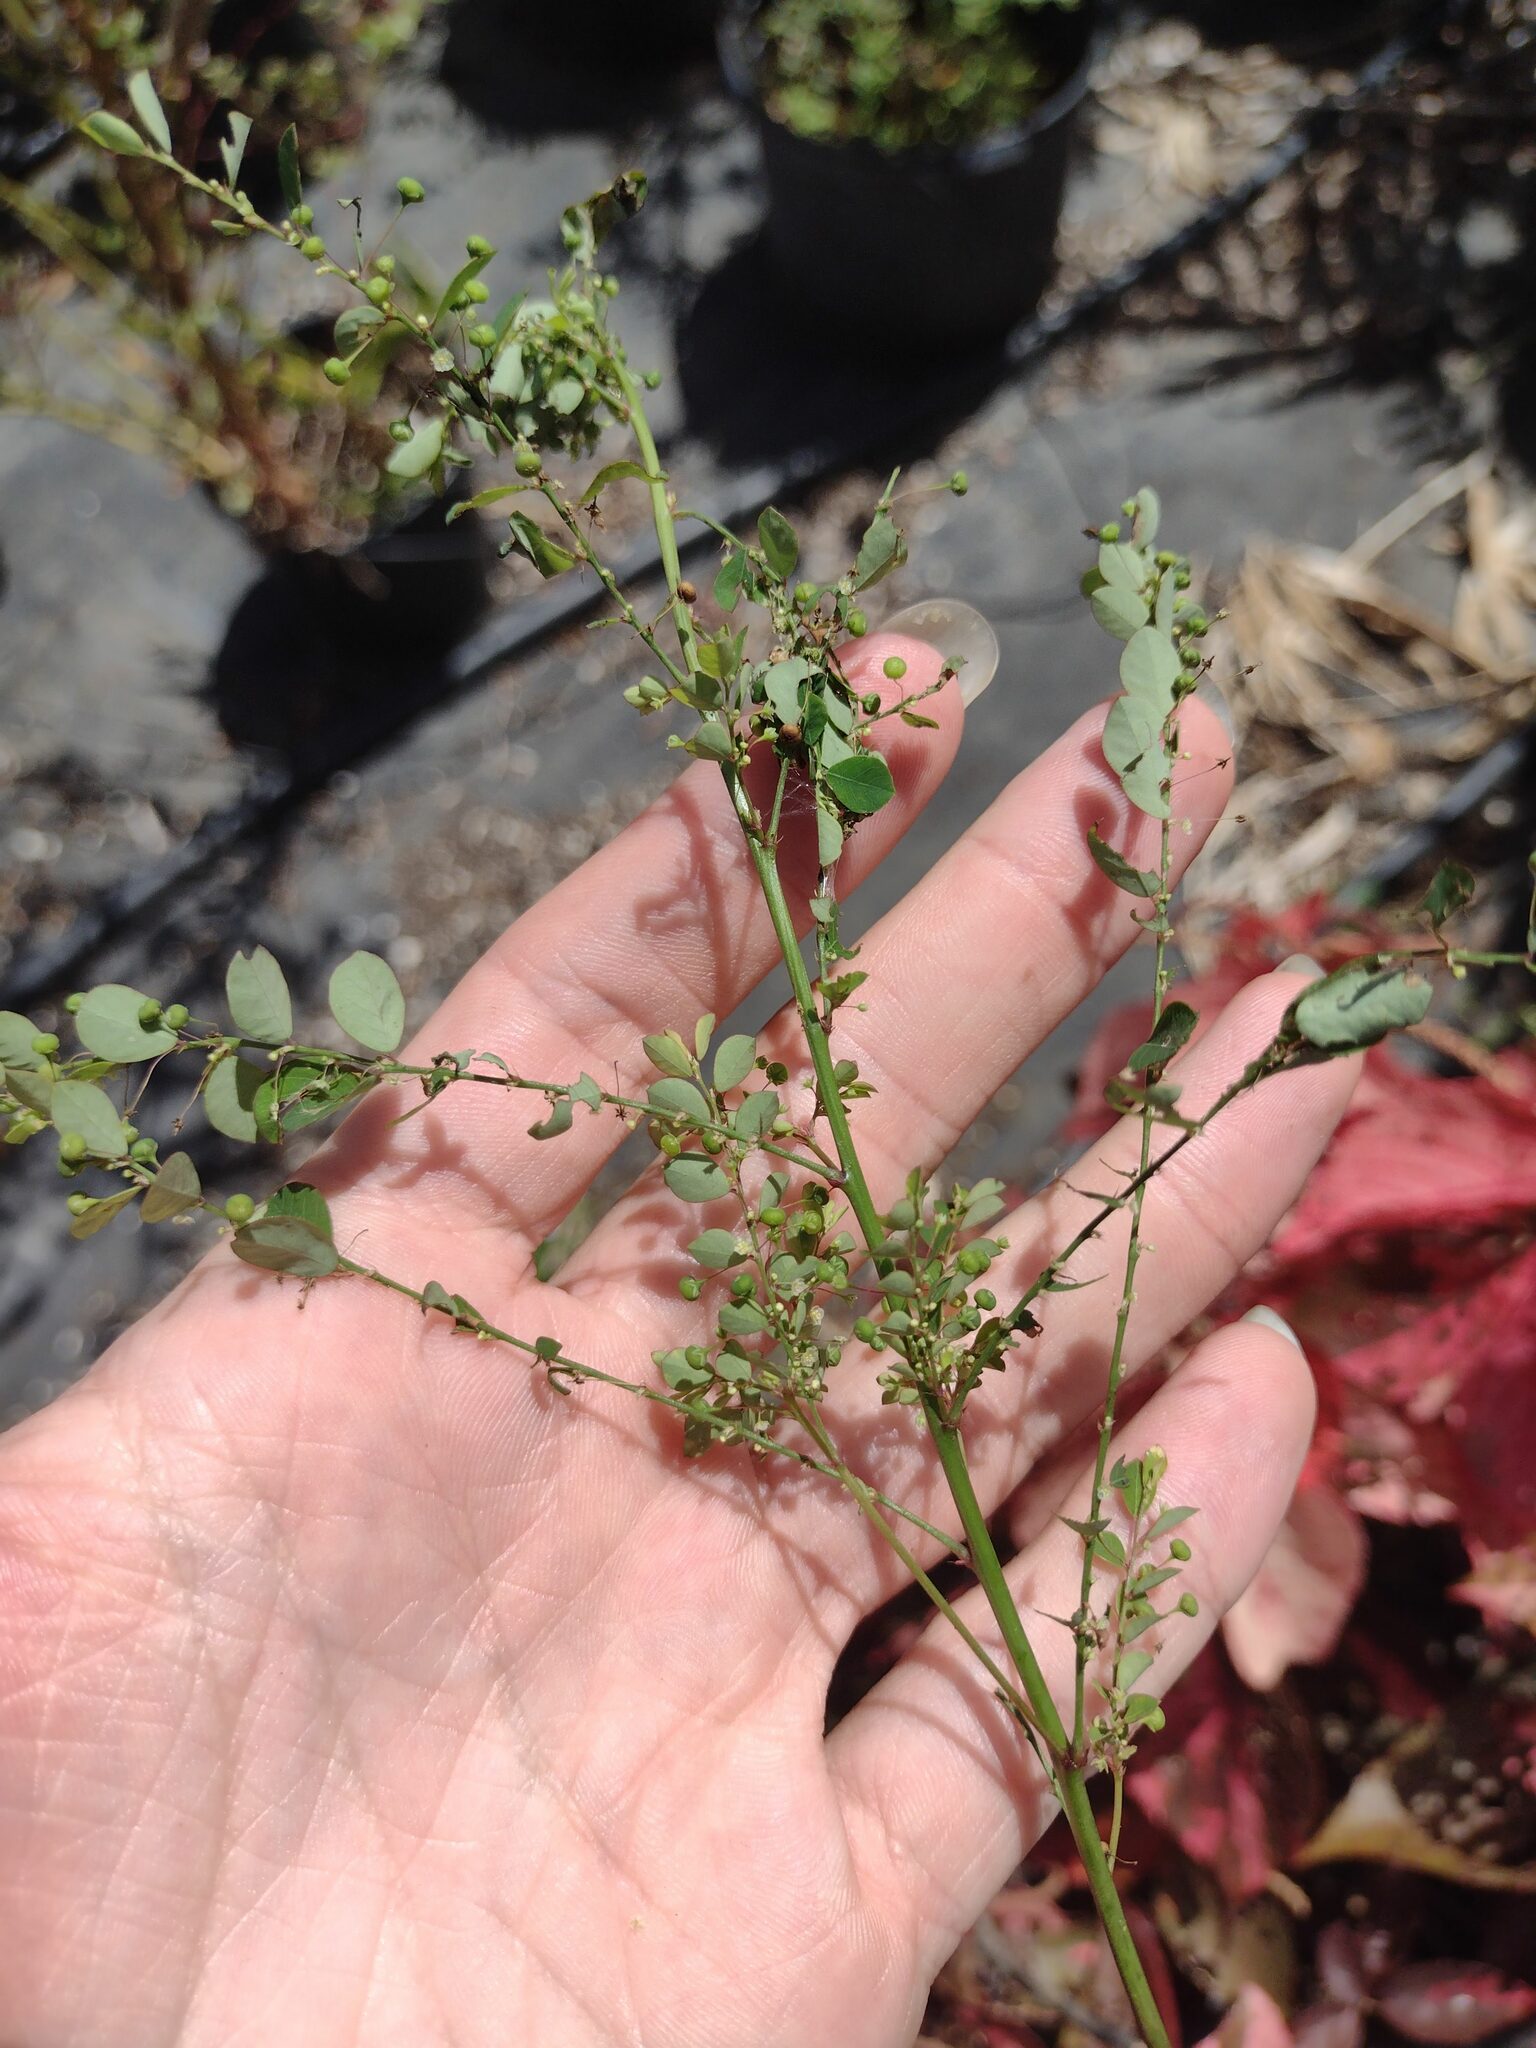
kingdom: Plantae
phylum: Tracheophyta
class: Magnoliopsida
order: Malpighiales
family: Phyllanthaceae
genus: Phyllanthus
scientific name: Phyllanthus tenellus
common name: Mascarene island leaf-flower
